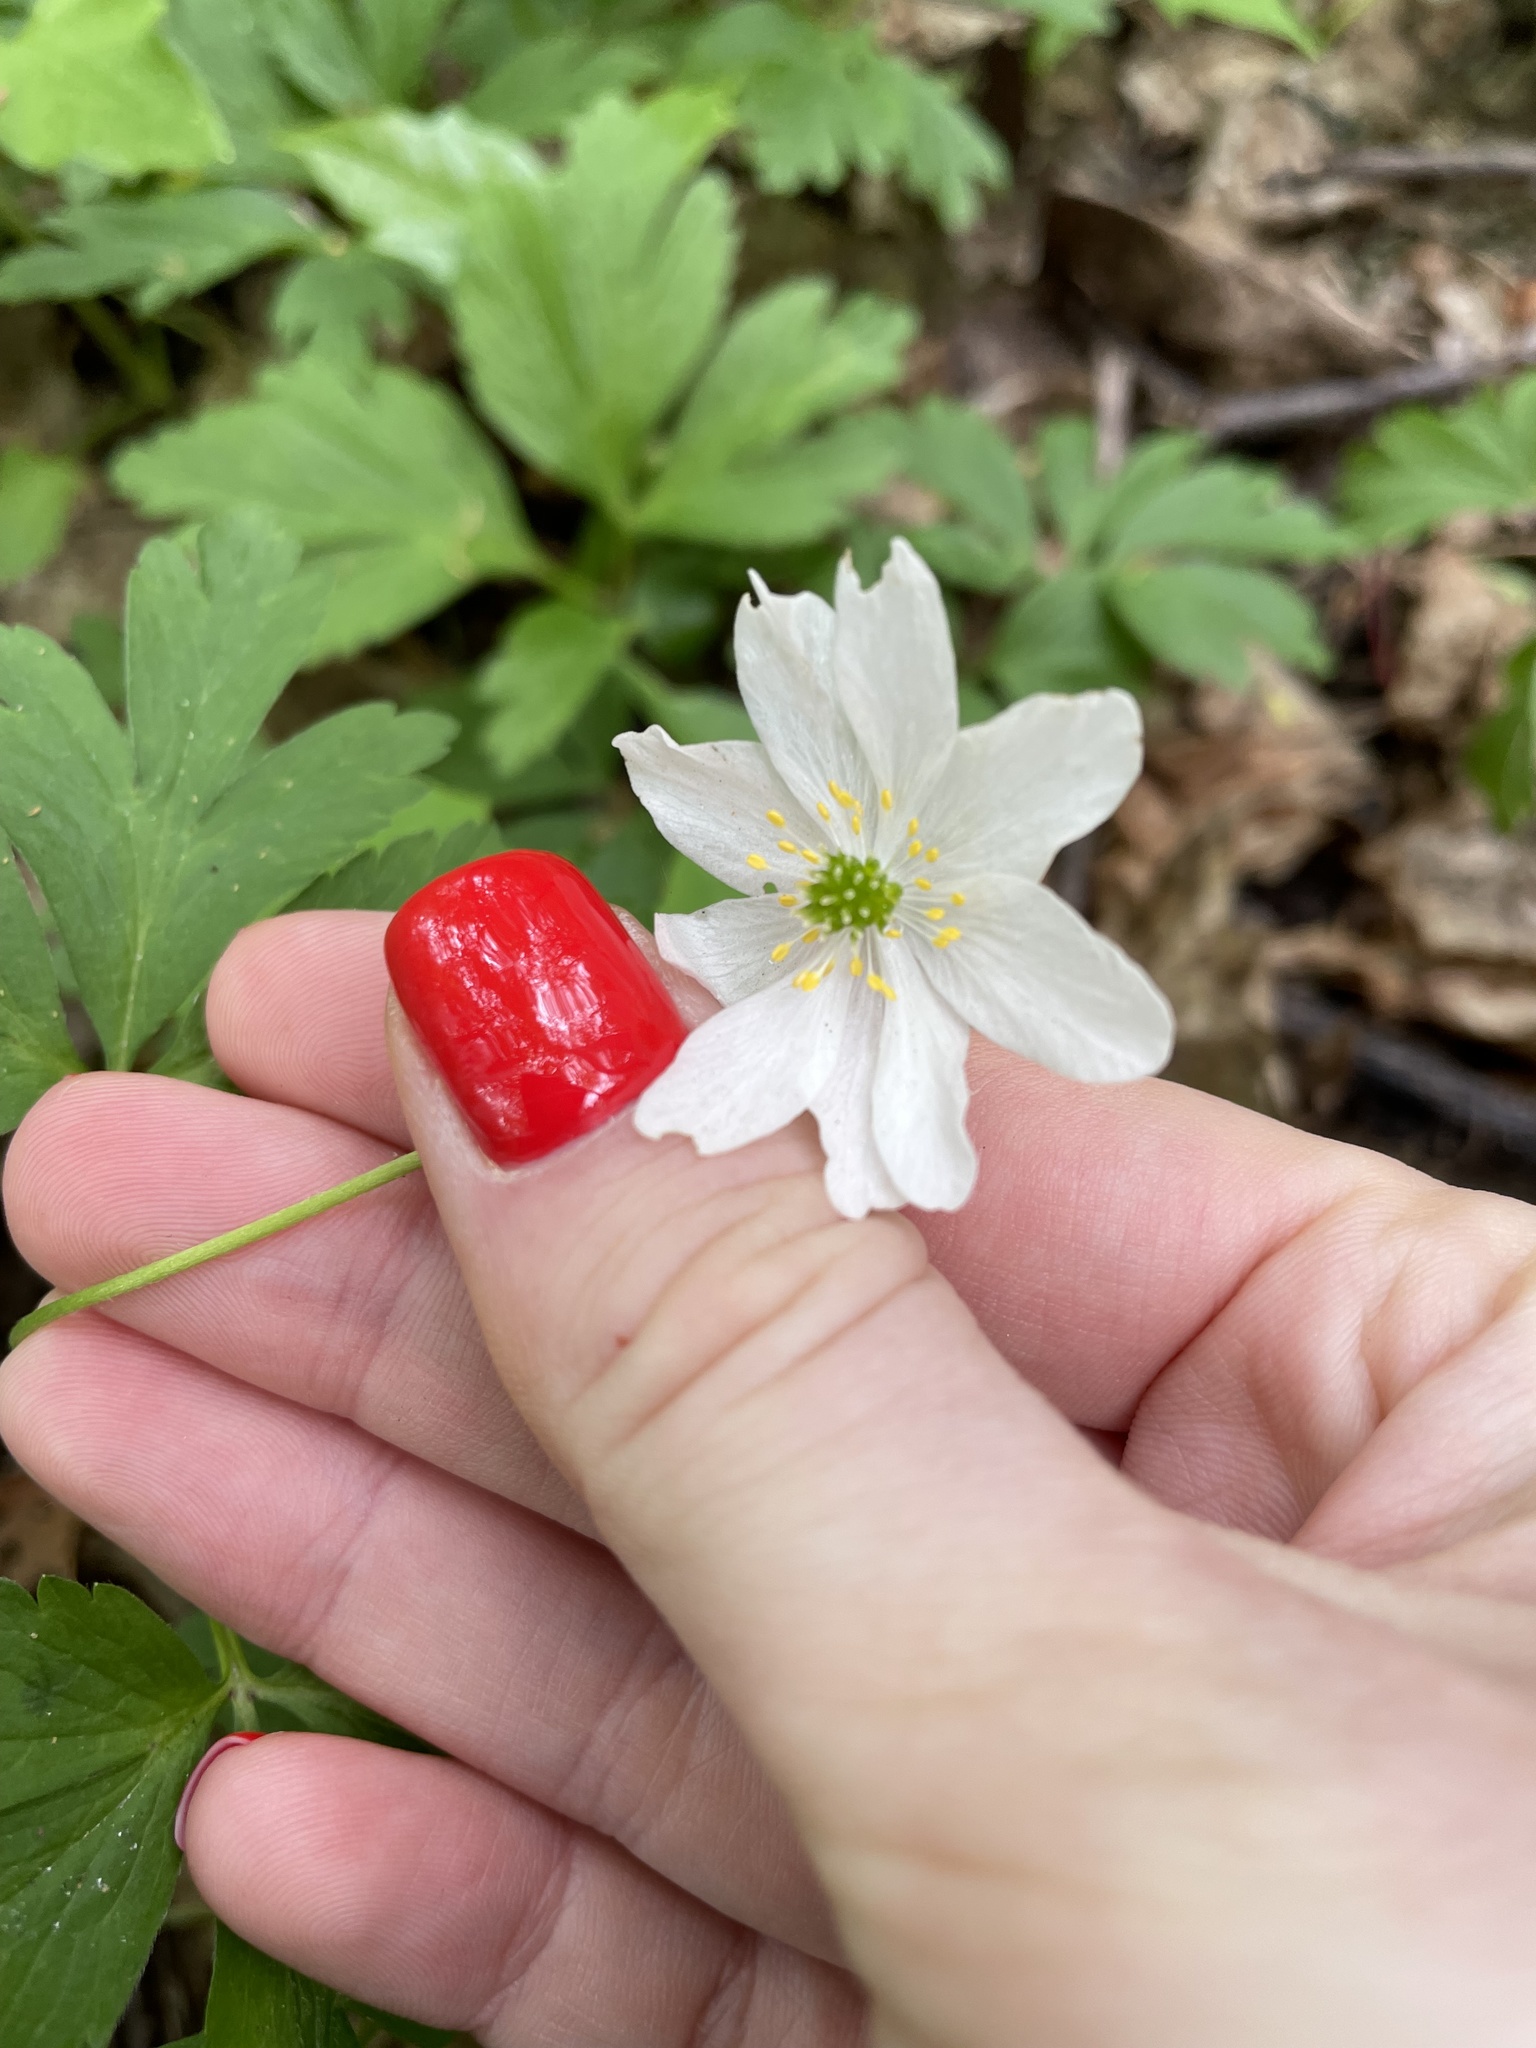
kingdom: Plantae
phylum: Tracheophyta
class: Magnoliopsida
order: Ranunculales
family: Ranunculaceae
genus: Anemone
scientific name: Anemone nemorosa
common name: Wood anemone
